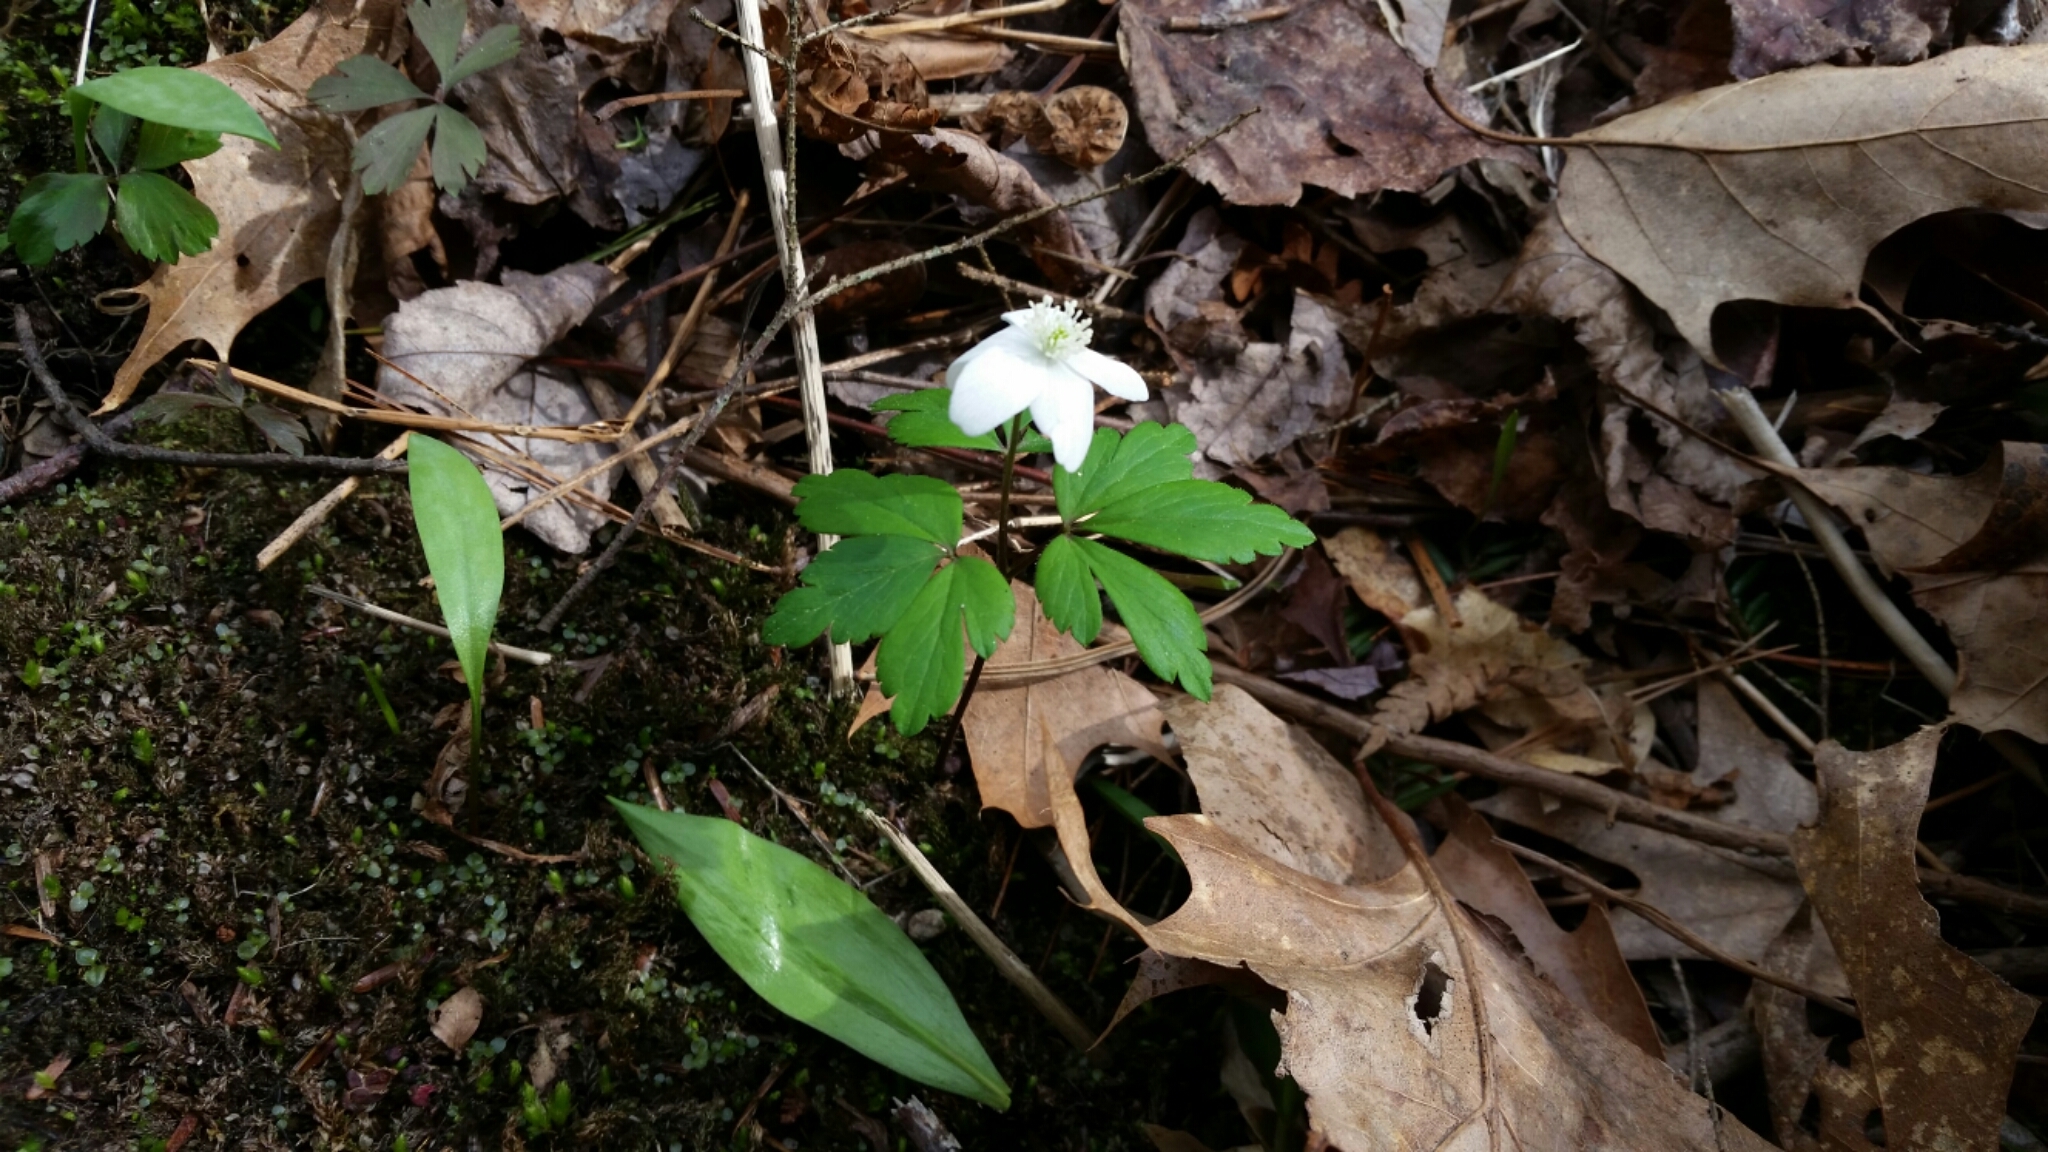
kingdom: Plantae
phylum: Tracheophyta
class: Magnoliopsida
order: Ranunculales
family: Ranunculaceae
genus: Anemone
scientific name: Anemone quinquefolia
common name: Wood anemone
